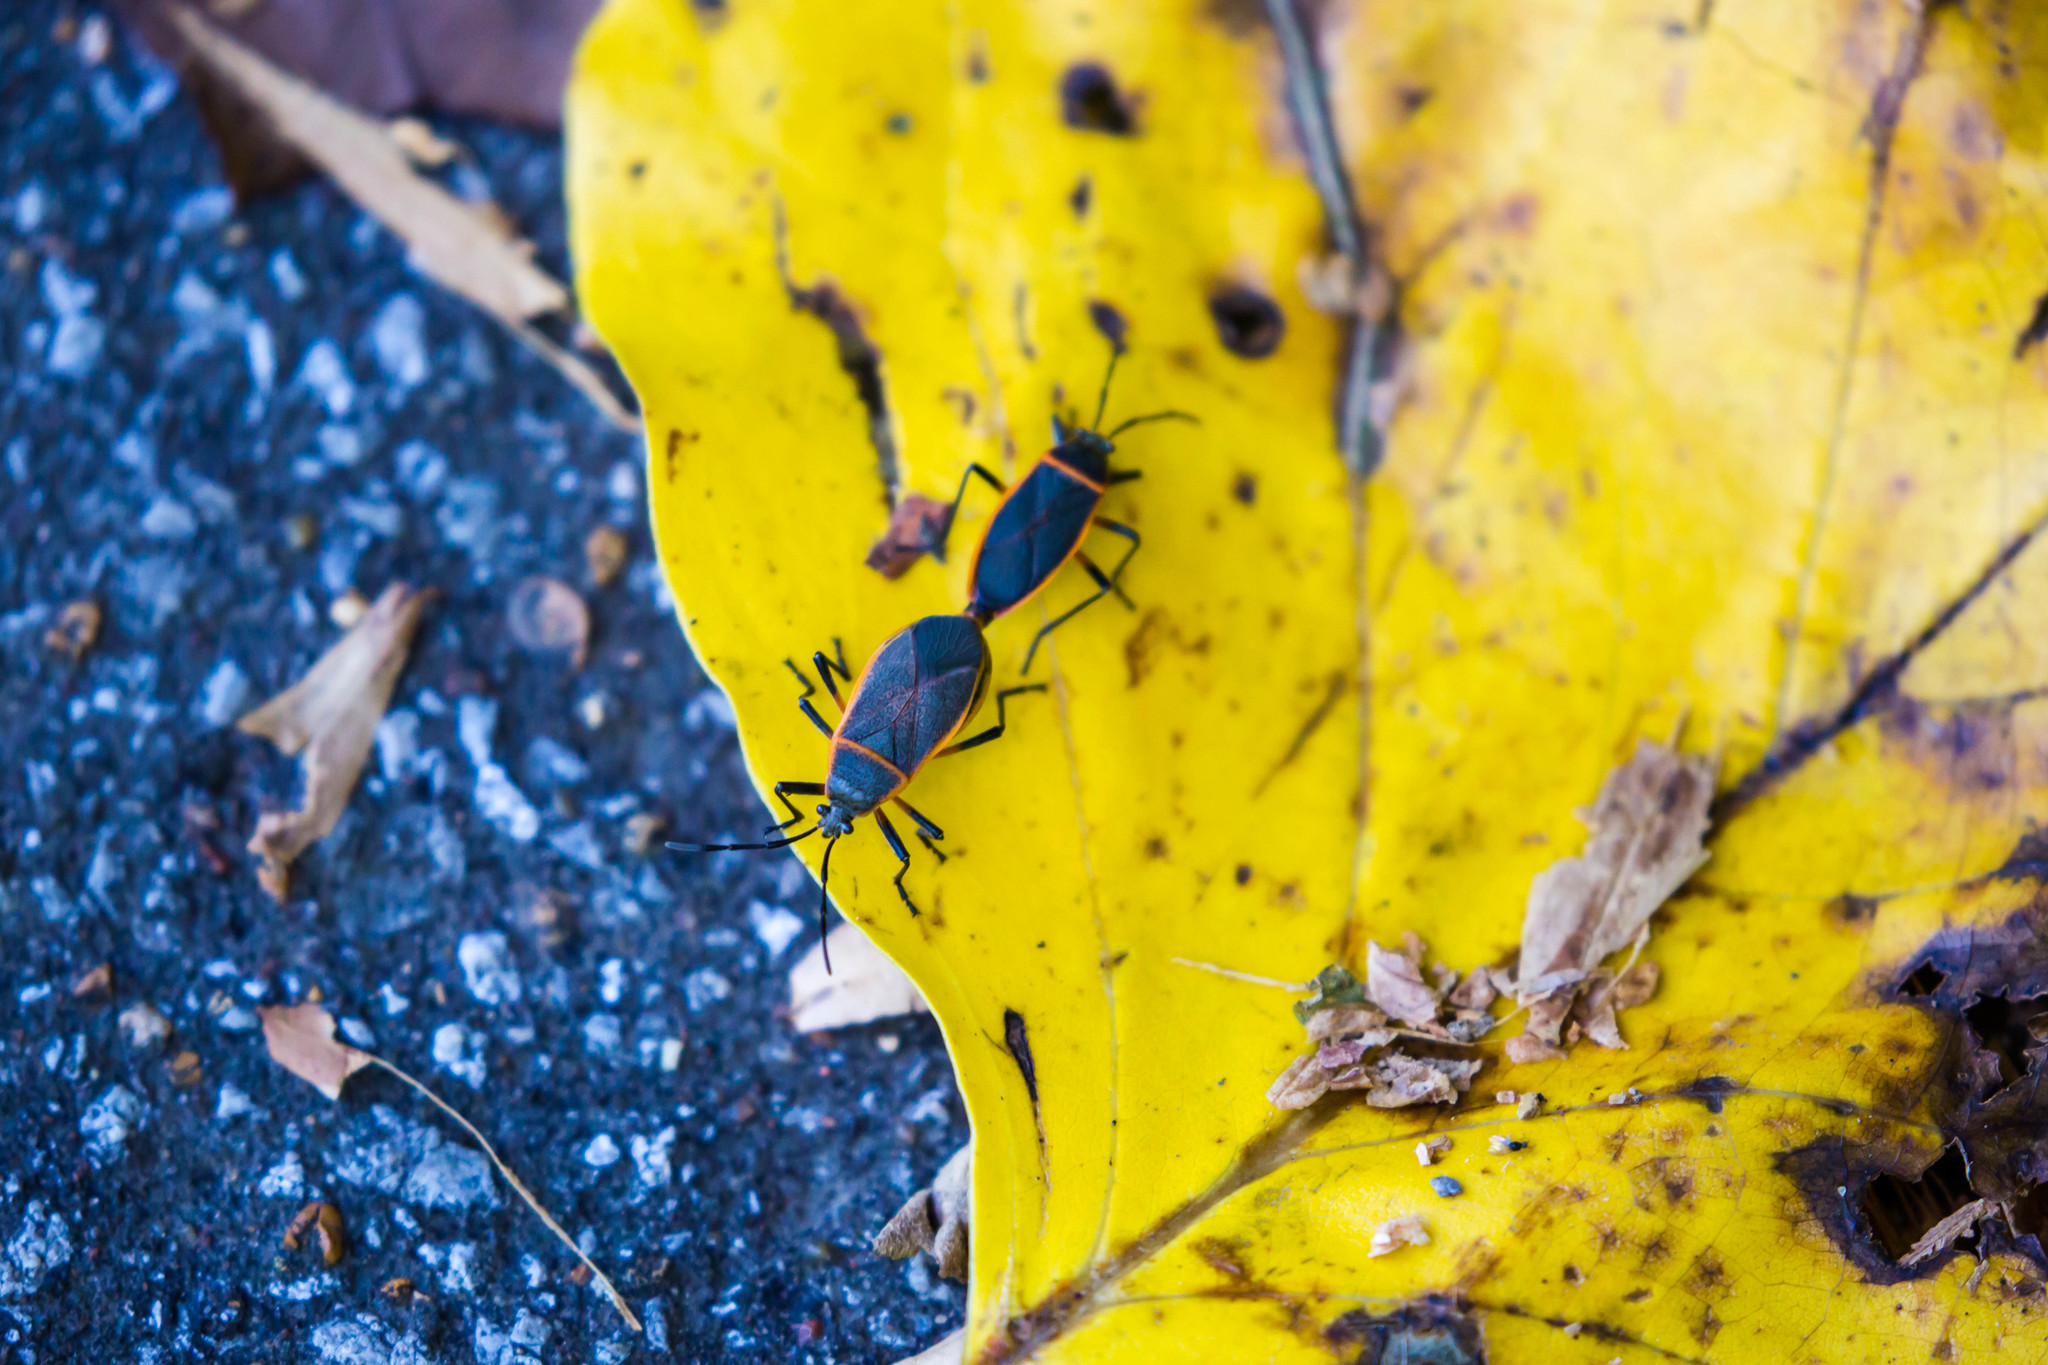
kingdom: Animalia
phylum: Arthropoda
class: Insecta
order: Hemiptera
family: Largidae
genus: Largus
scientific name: Largus succinctus
